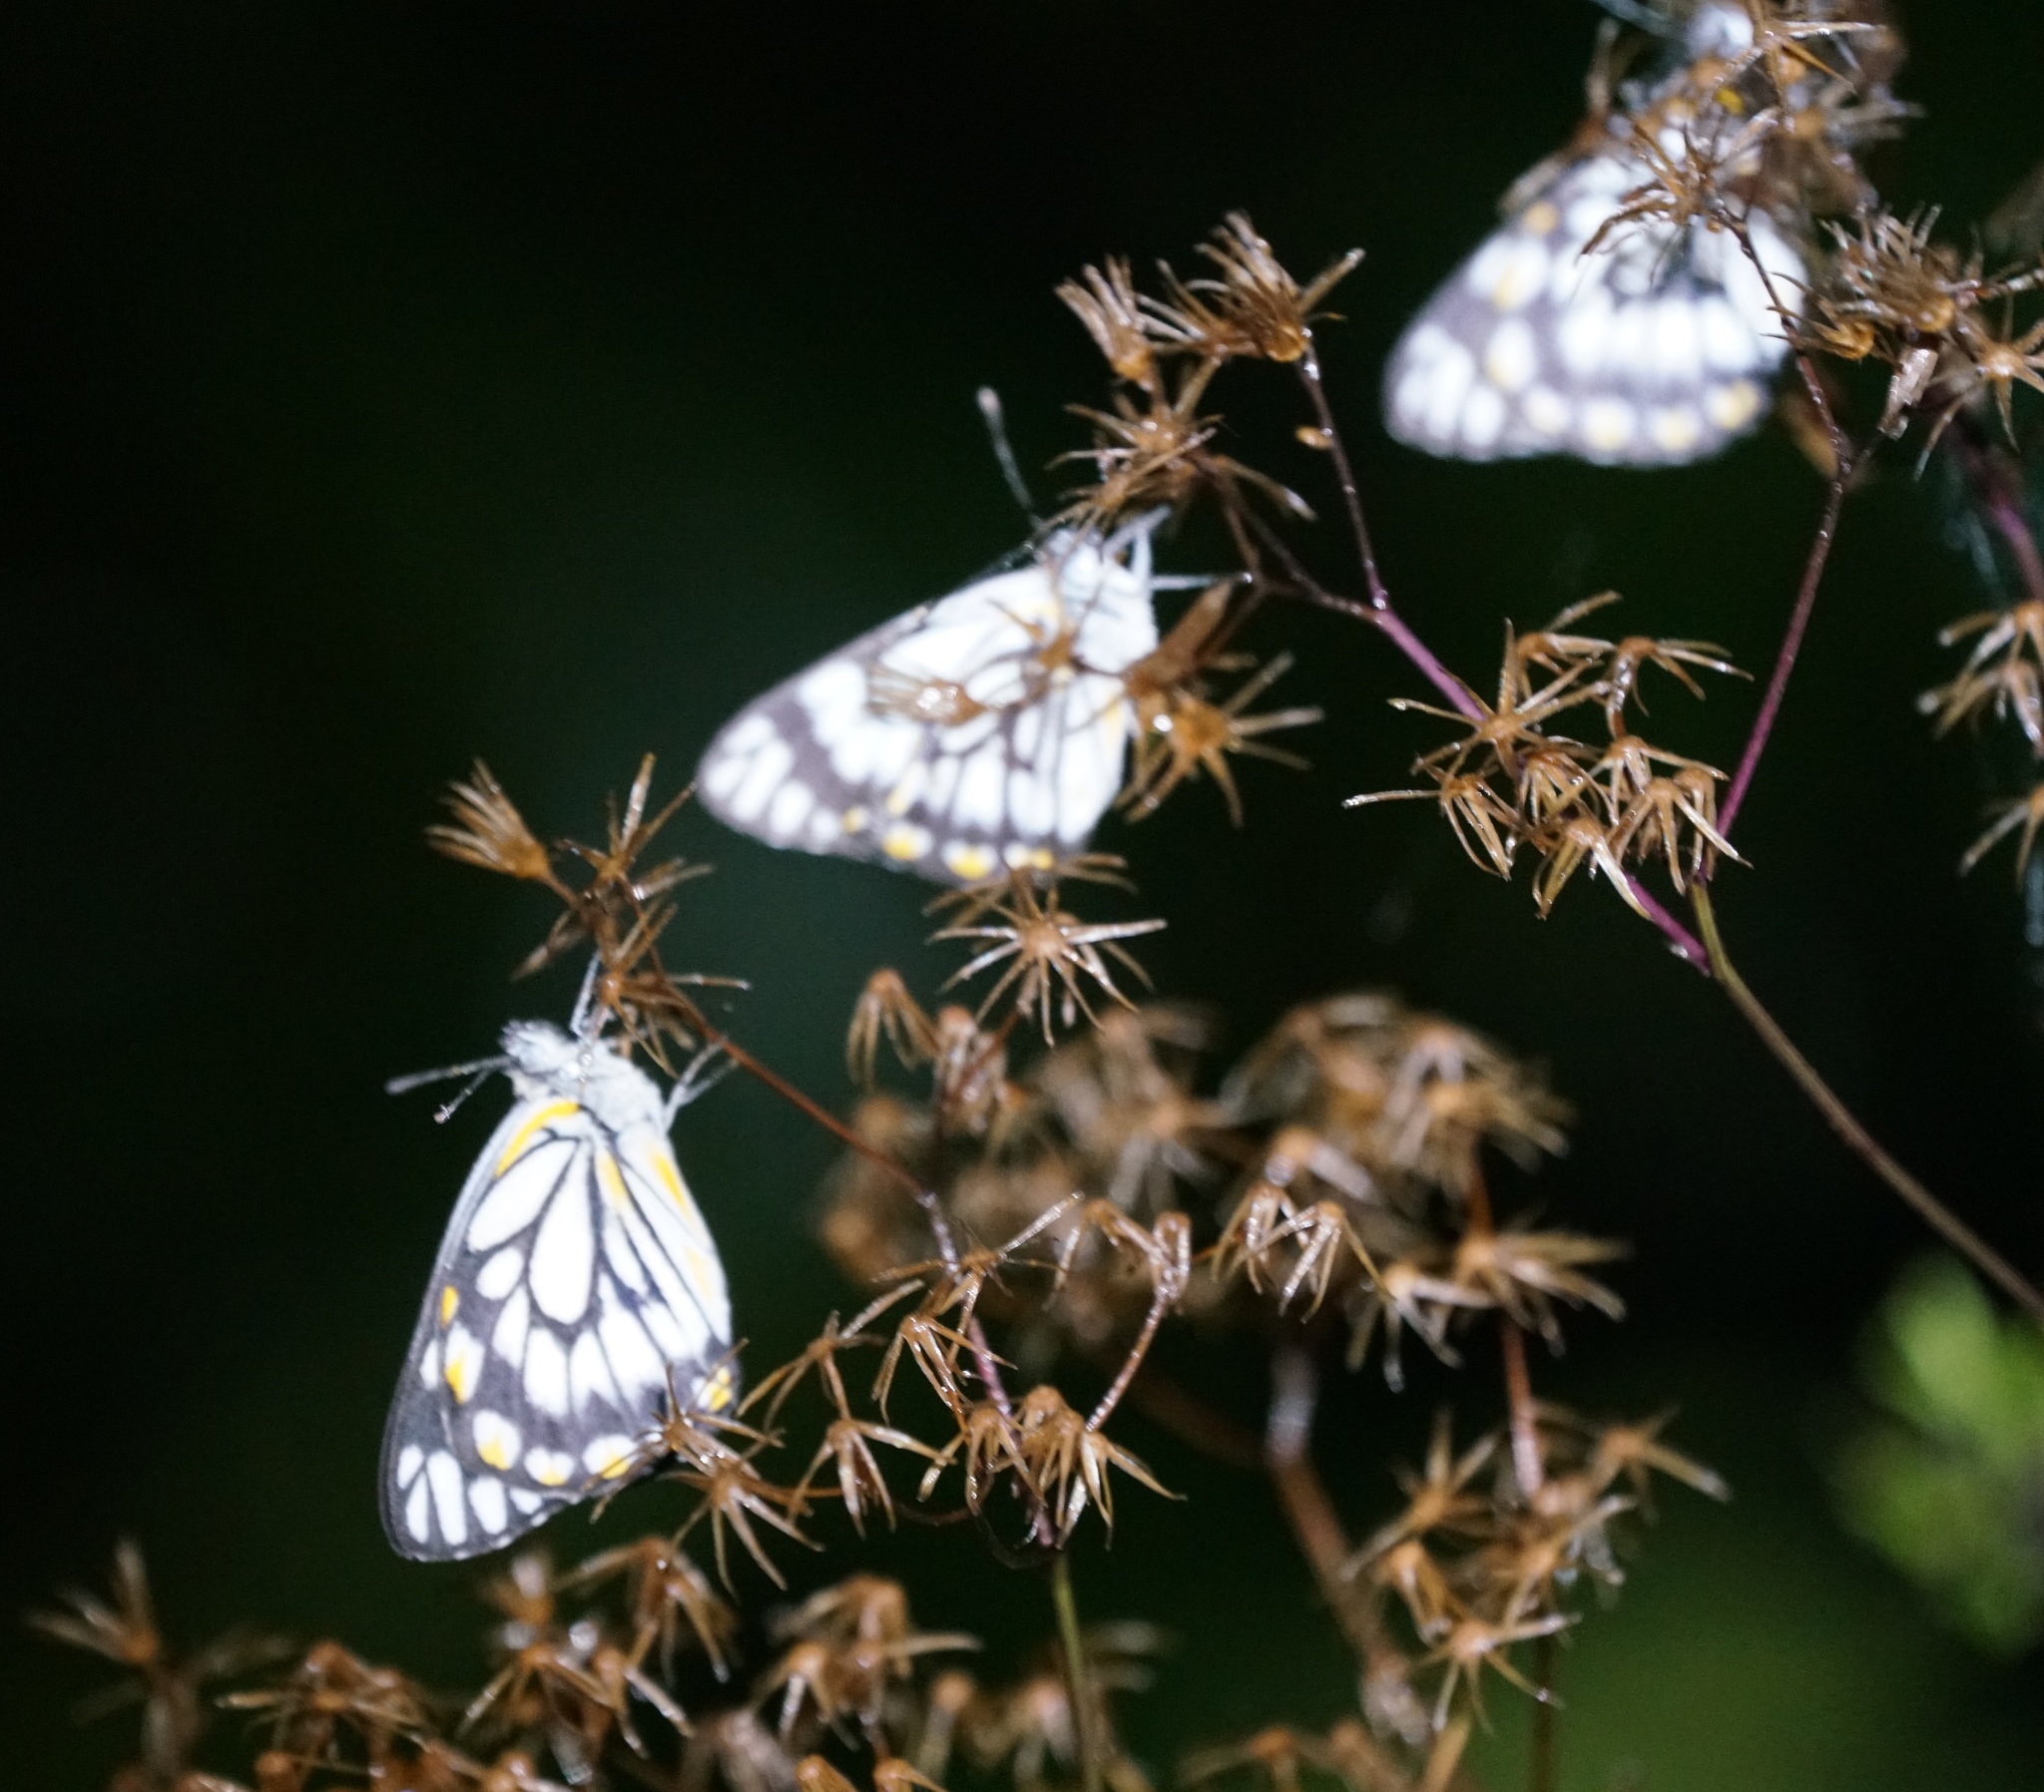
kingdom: Animalia
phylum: Arthropoda
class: Insecta
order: Lepidoptera
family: Pieridae
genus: Belenois
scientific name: Belenois java
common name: Caper white
